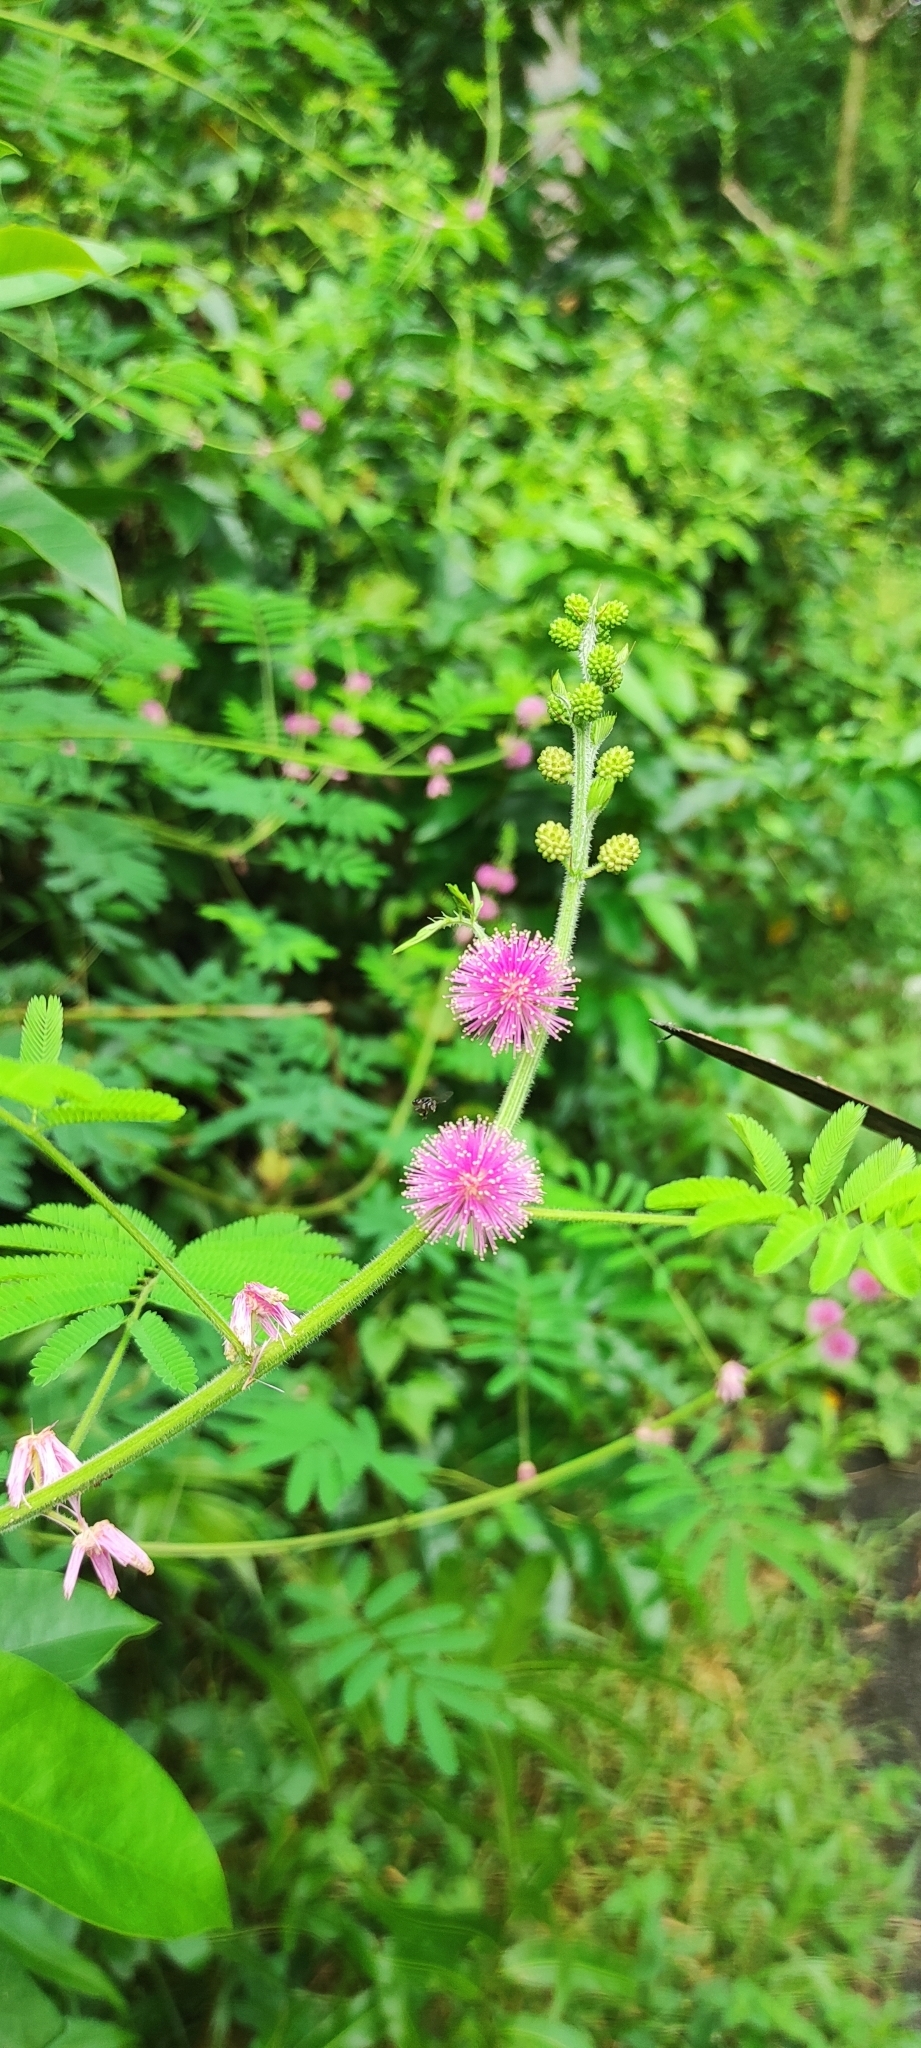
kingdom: Plantae
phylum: Tracheophyta
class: Magnoliopsida
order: Fabales
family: Fabaceae
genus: Mimosa
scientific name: Mimosa diplotricha
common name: Giant sensitive-plant
